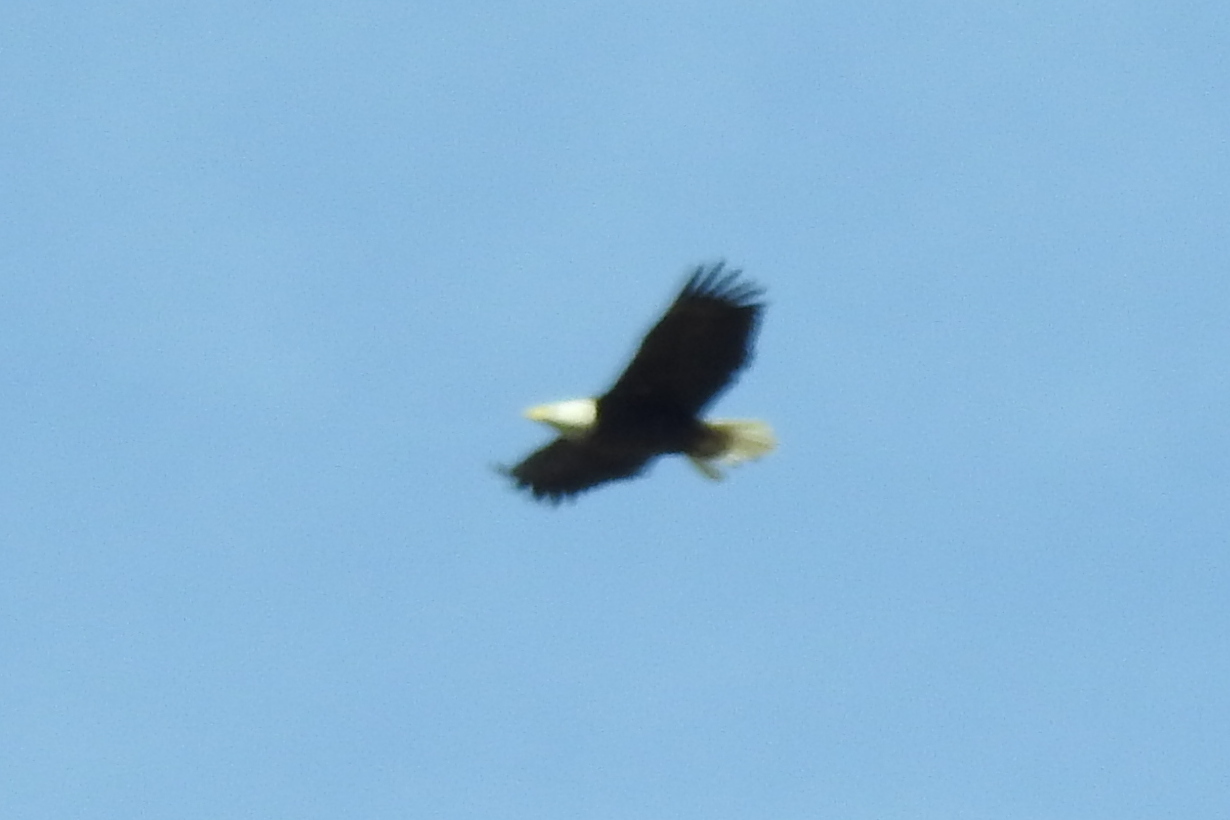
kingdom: Animalia
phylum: Chordata
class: Aves
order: Accipitriformes
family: Accipitridae
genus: Haliaeetus
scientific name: Haliaeetus leucocephalus
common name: Bald eagle
